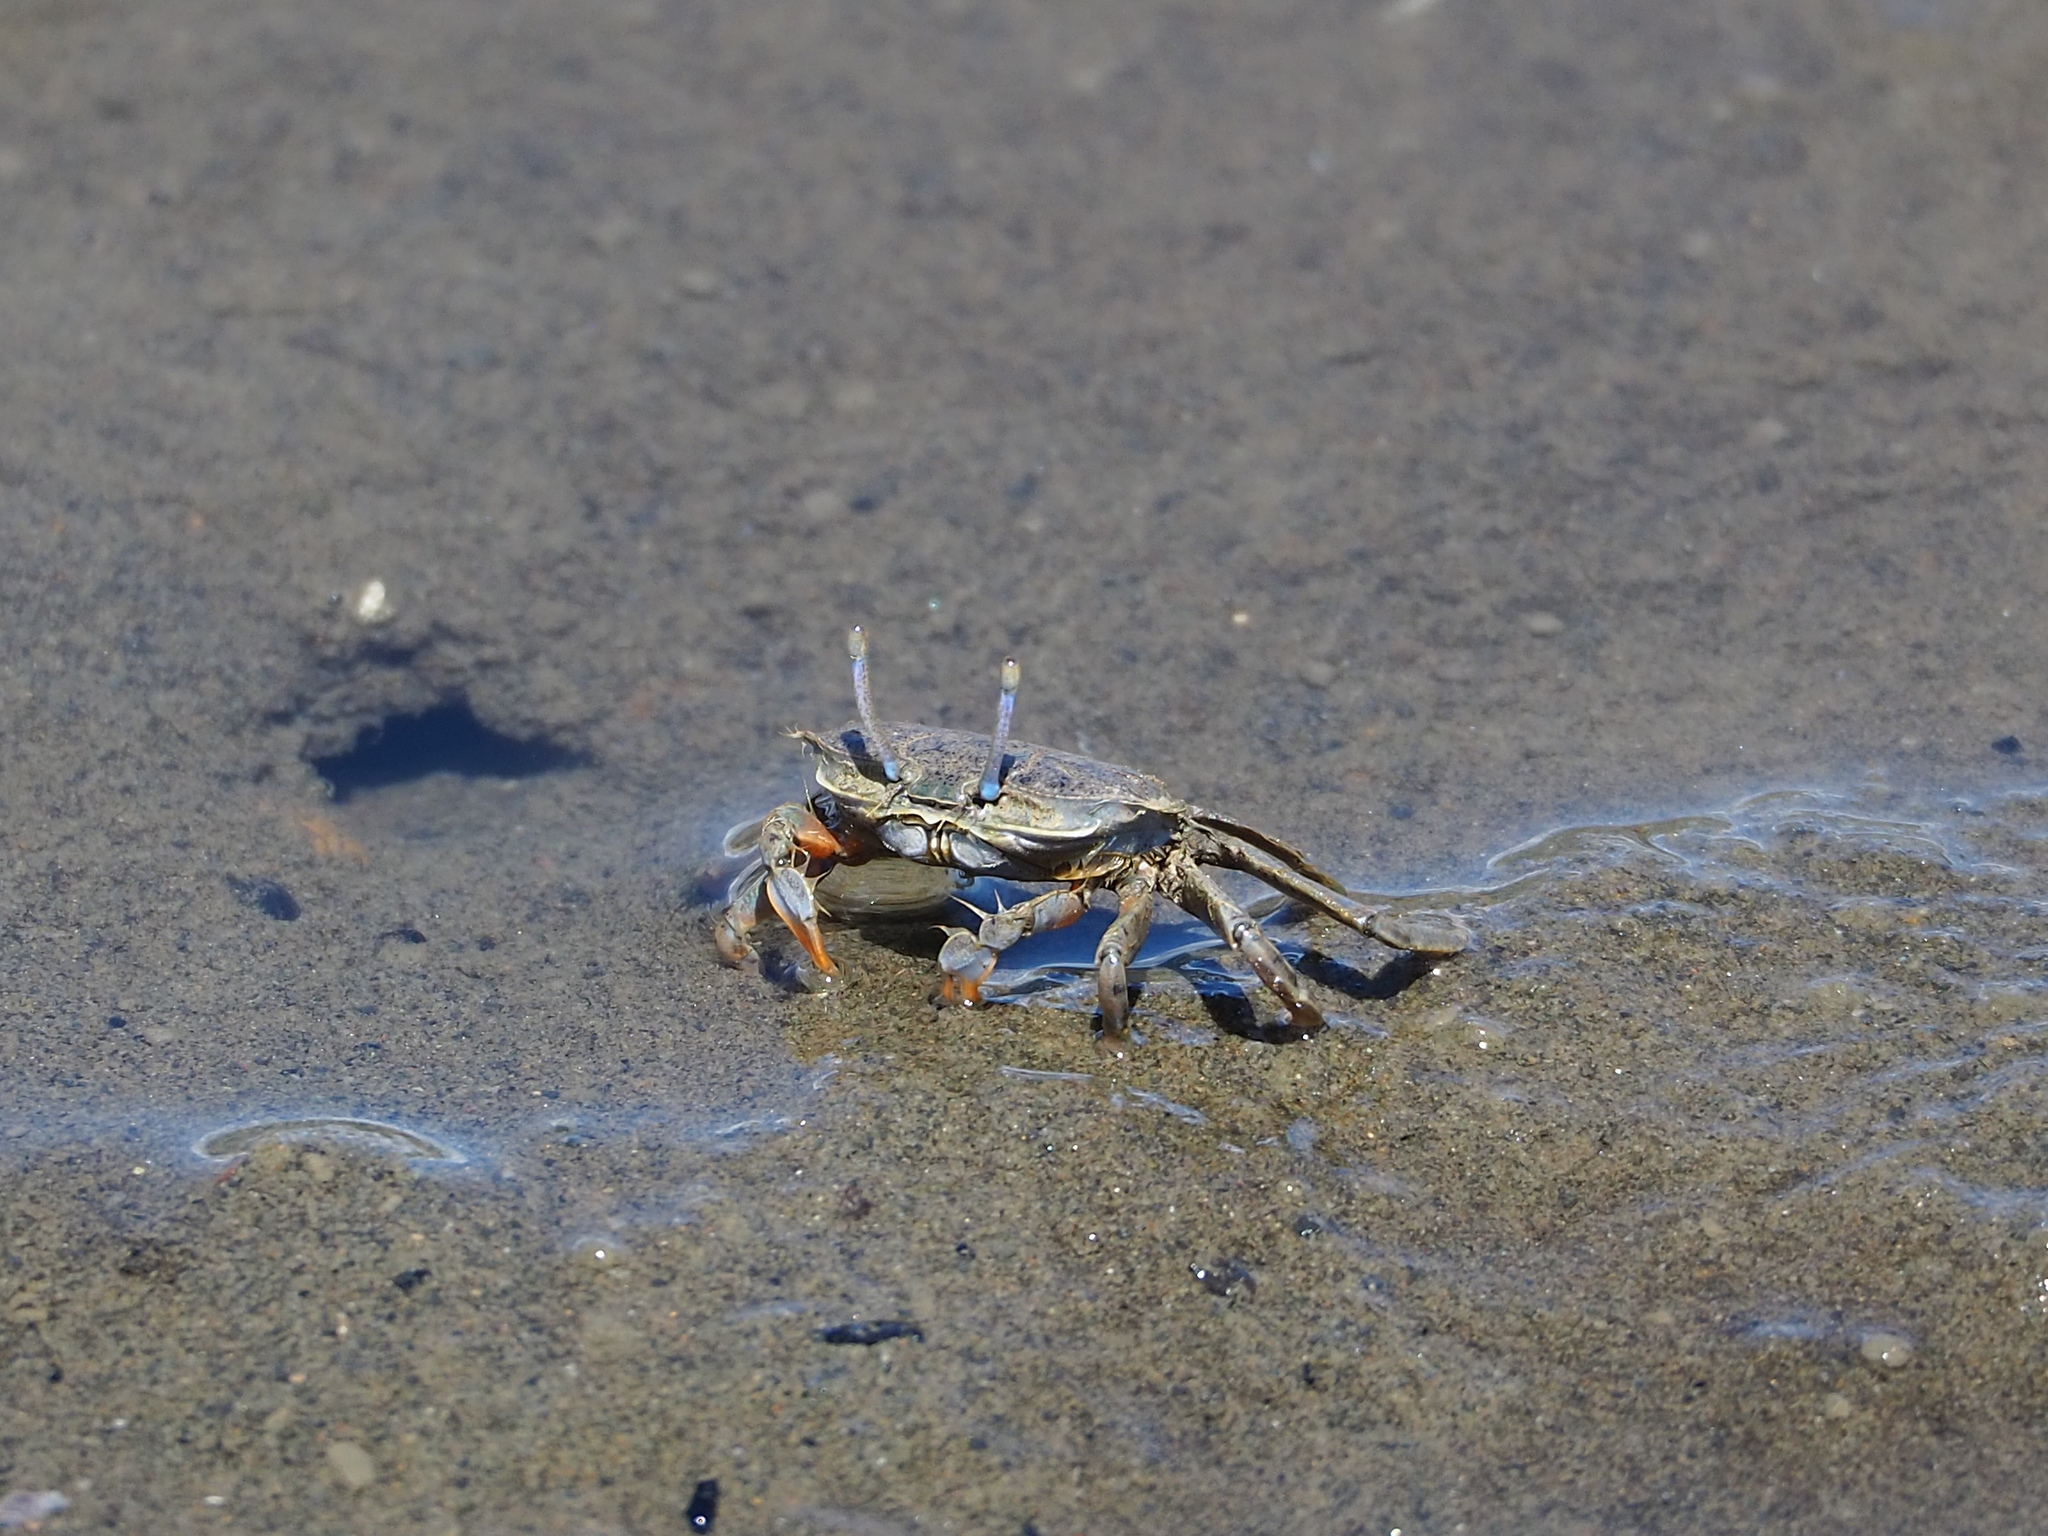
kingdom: Animalia
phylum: Arthropoda
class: Malacostraca
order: Decapoda
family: Macrophthalmidae
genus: Macrophthalmus
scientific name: Macrophthalmus abbreviatus
